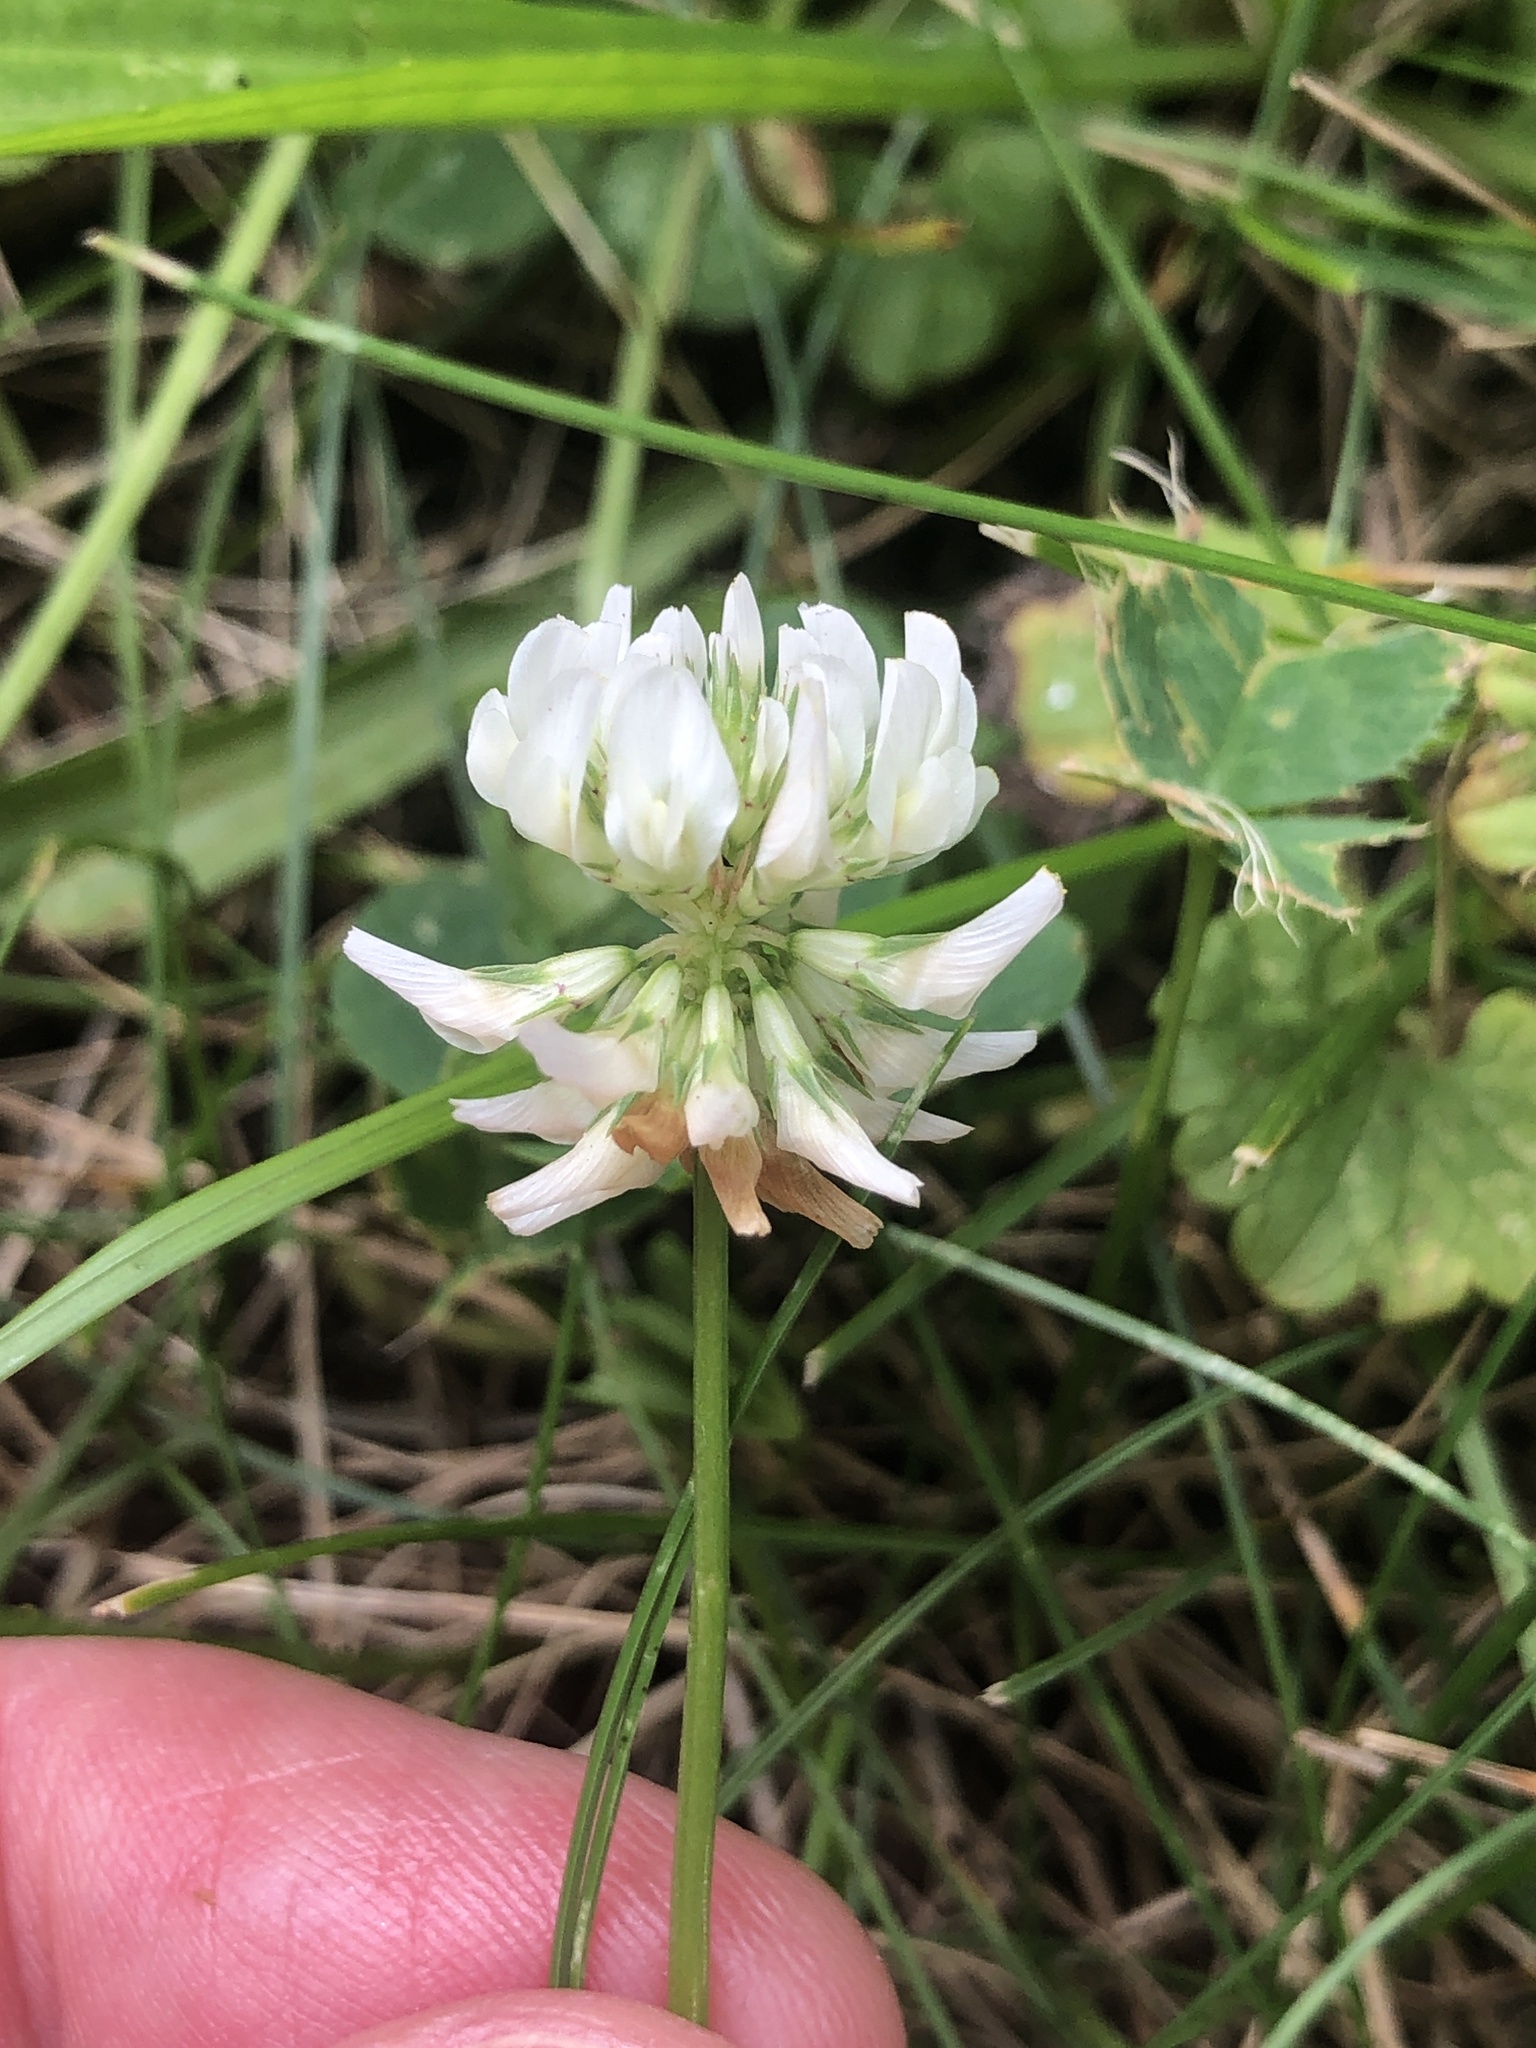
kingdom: Plantae
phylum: Tracheophyta
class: Magnoliopsida
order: Fabales
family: Fabaceae
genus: Trifolium
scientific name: Trifolium repens
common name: White clover
